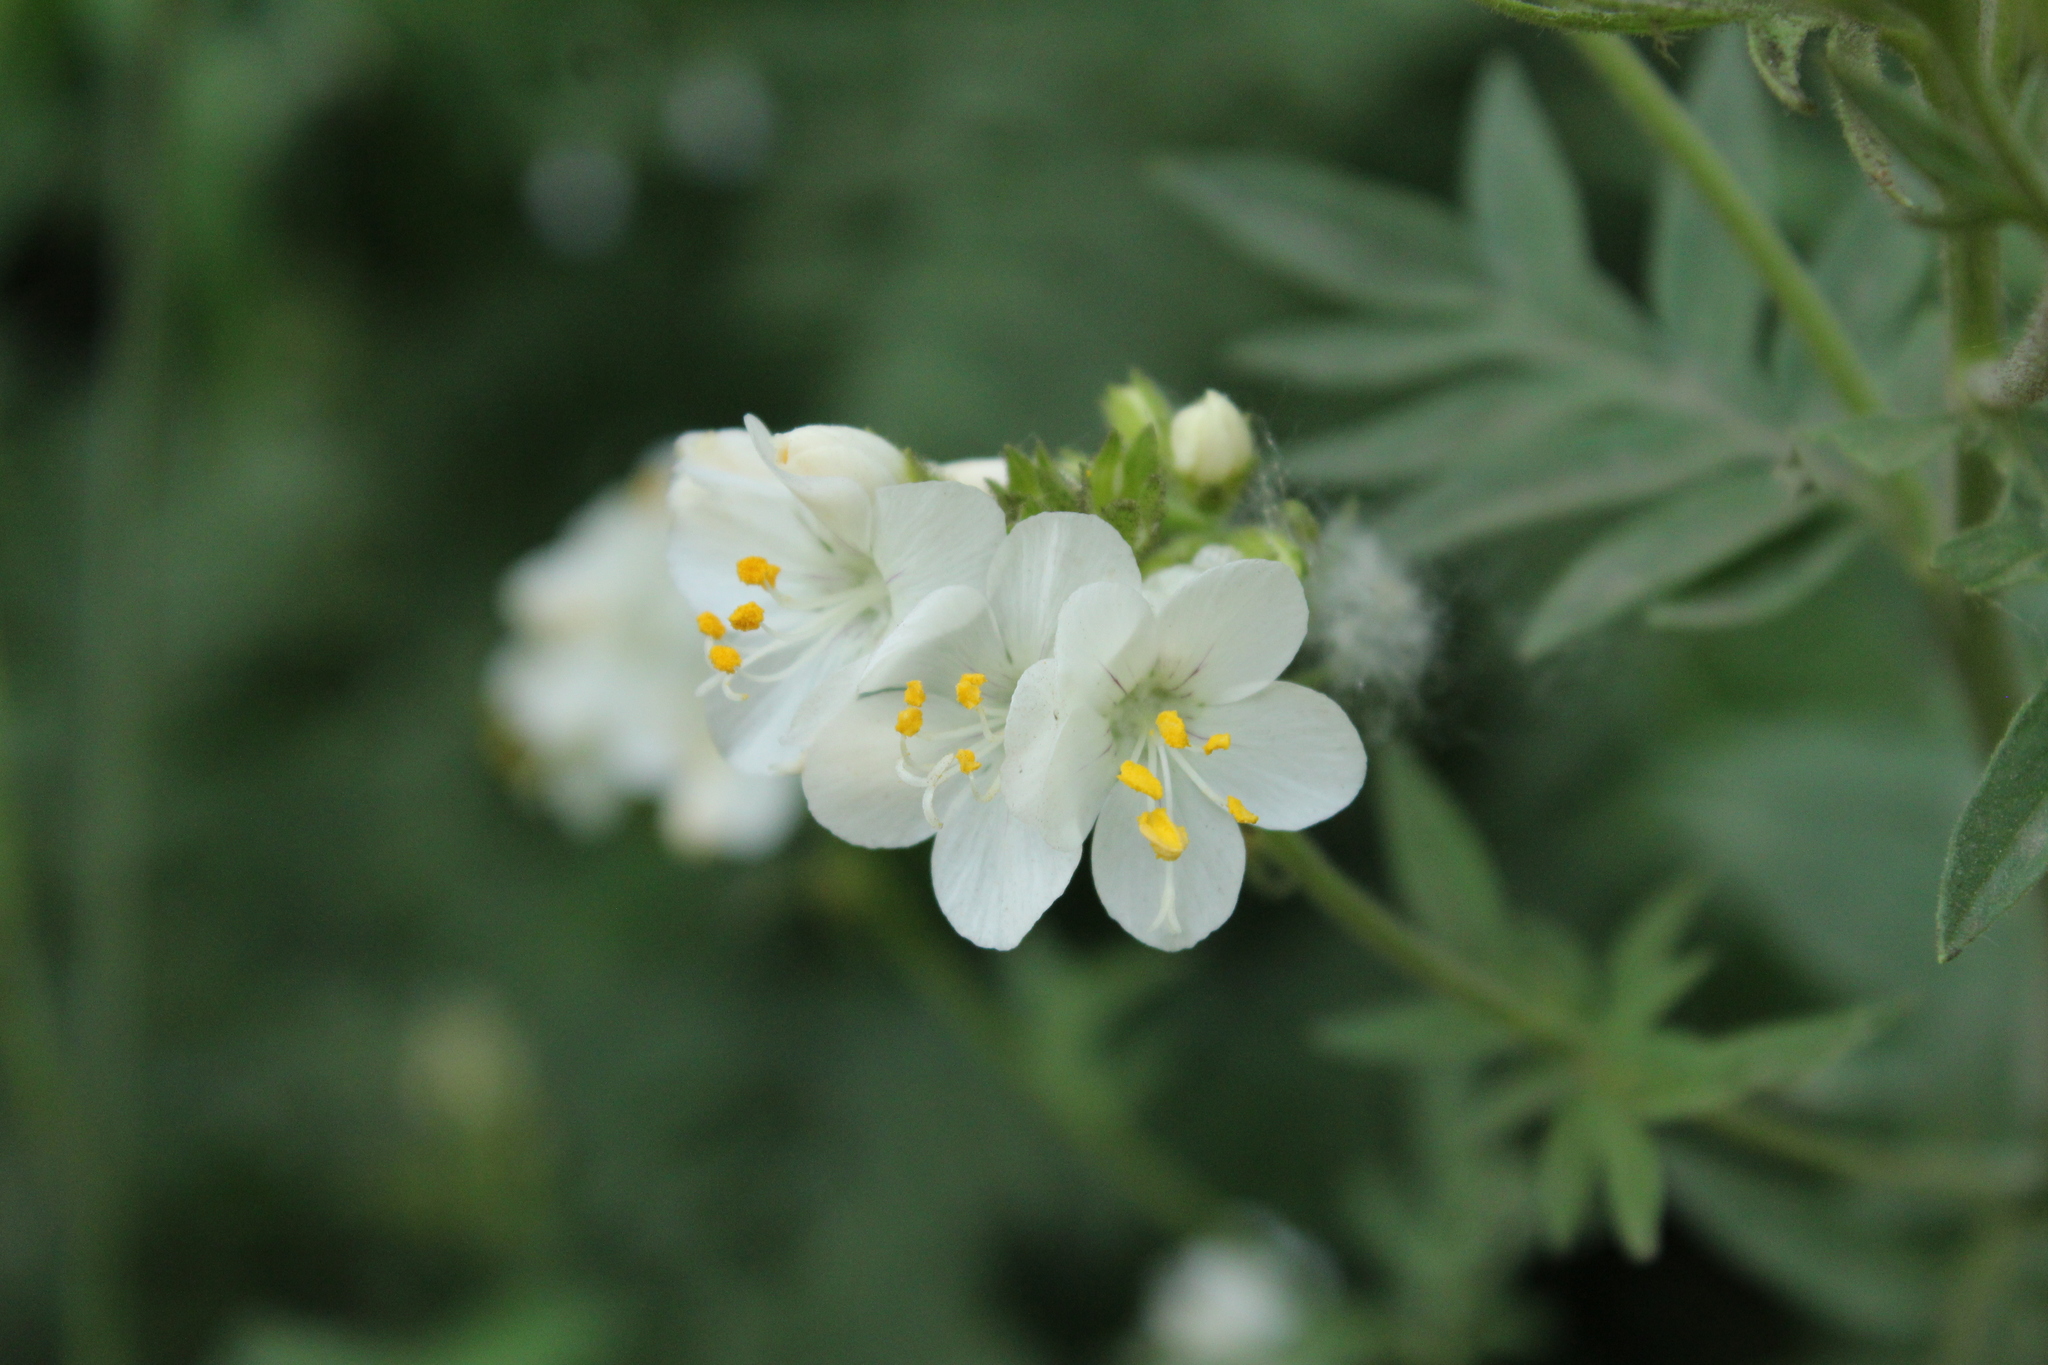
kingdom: Plantae
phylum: Tracheophyta
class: Magnoliopsida
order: Ericales
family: Polemoniaceae
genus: Polemonium
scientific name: Polemonium foliosissimum
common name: Leafy jacob's-ladder
